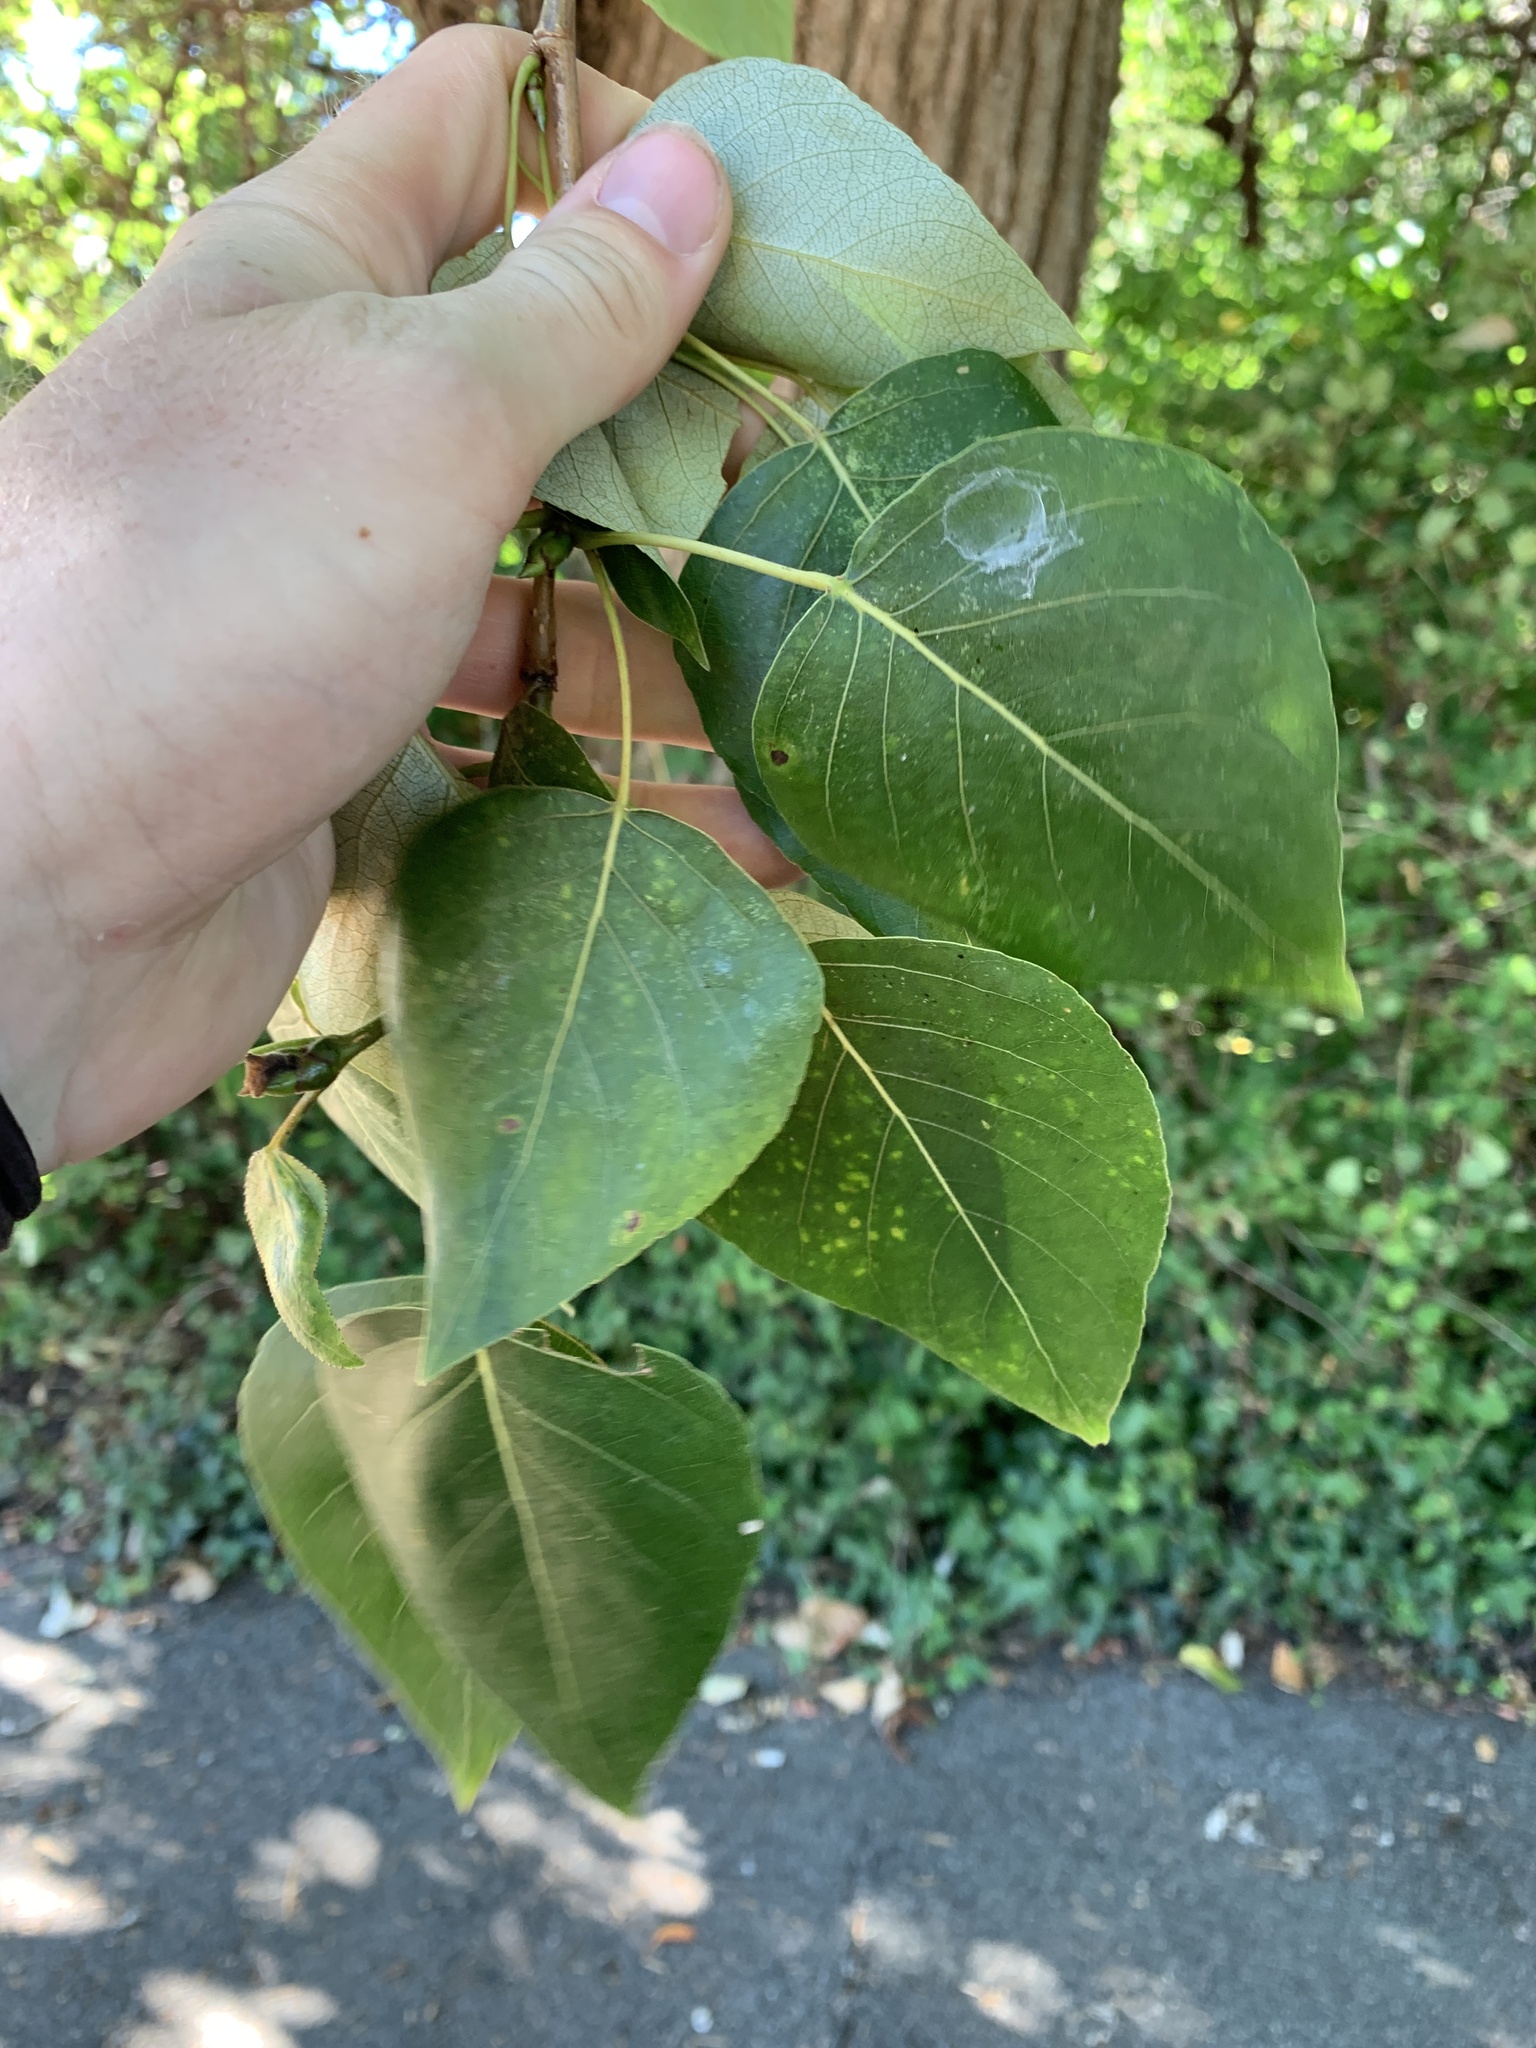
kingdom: Plantae
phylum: Tracheophyta
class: Magnoliopsida
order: Malpighiales
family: Salicaceae
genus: Populus
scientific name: Populus trichocarpa
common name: Black cottonwood
